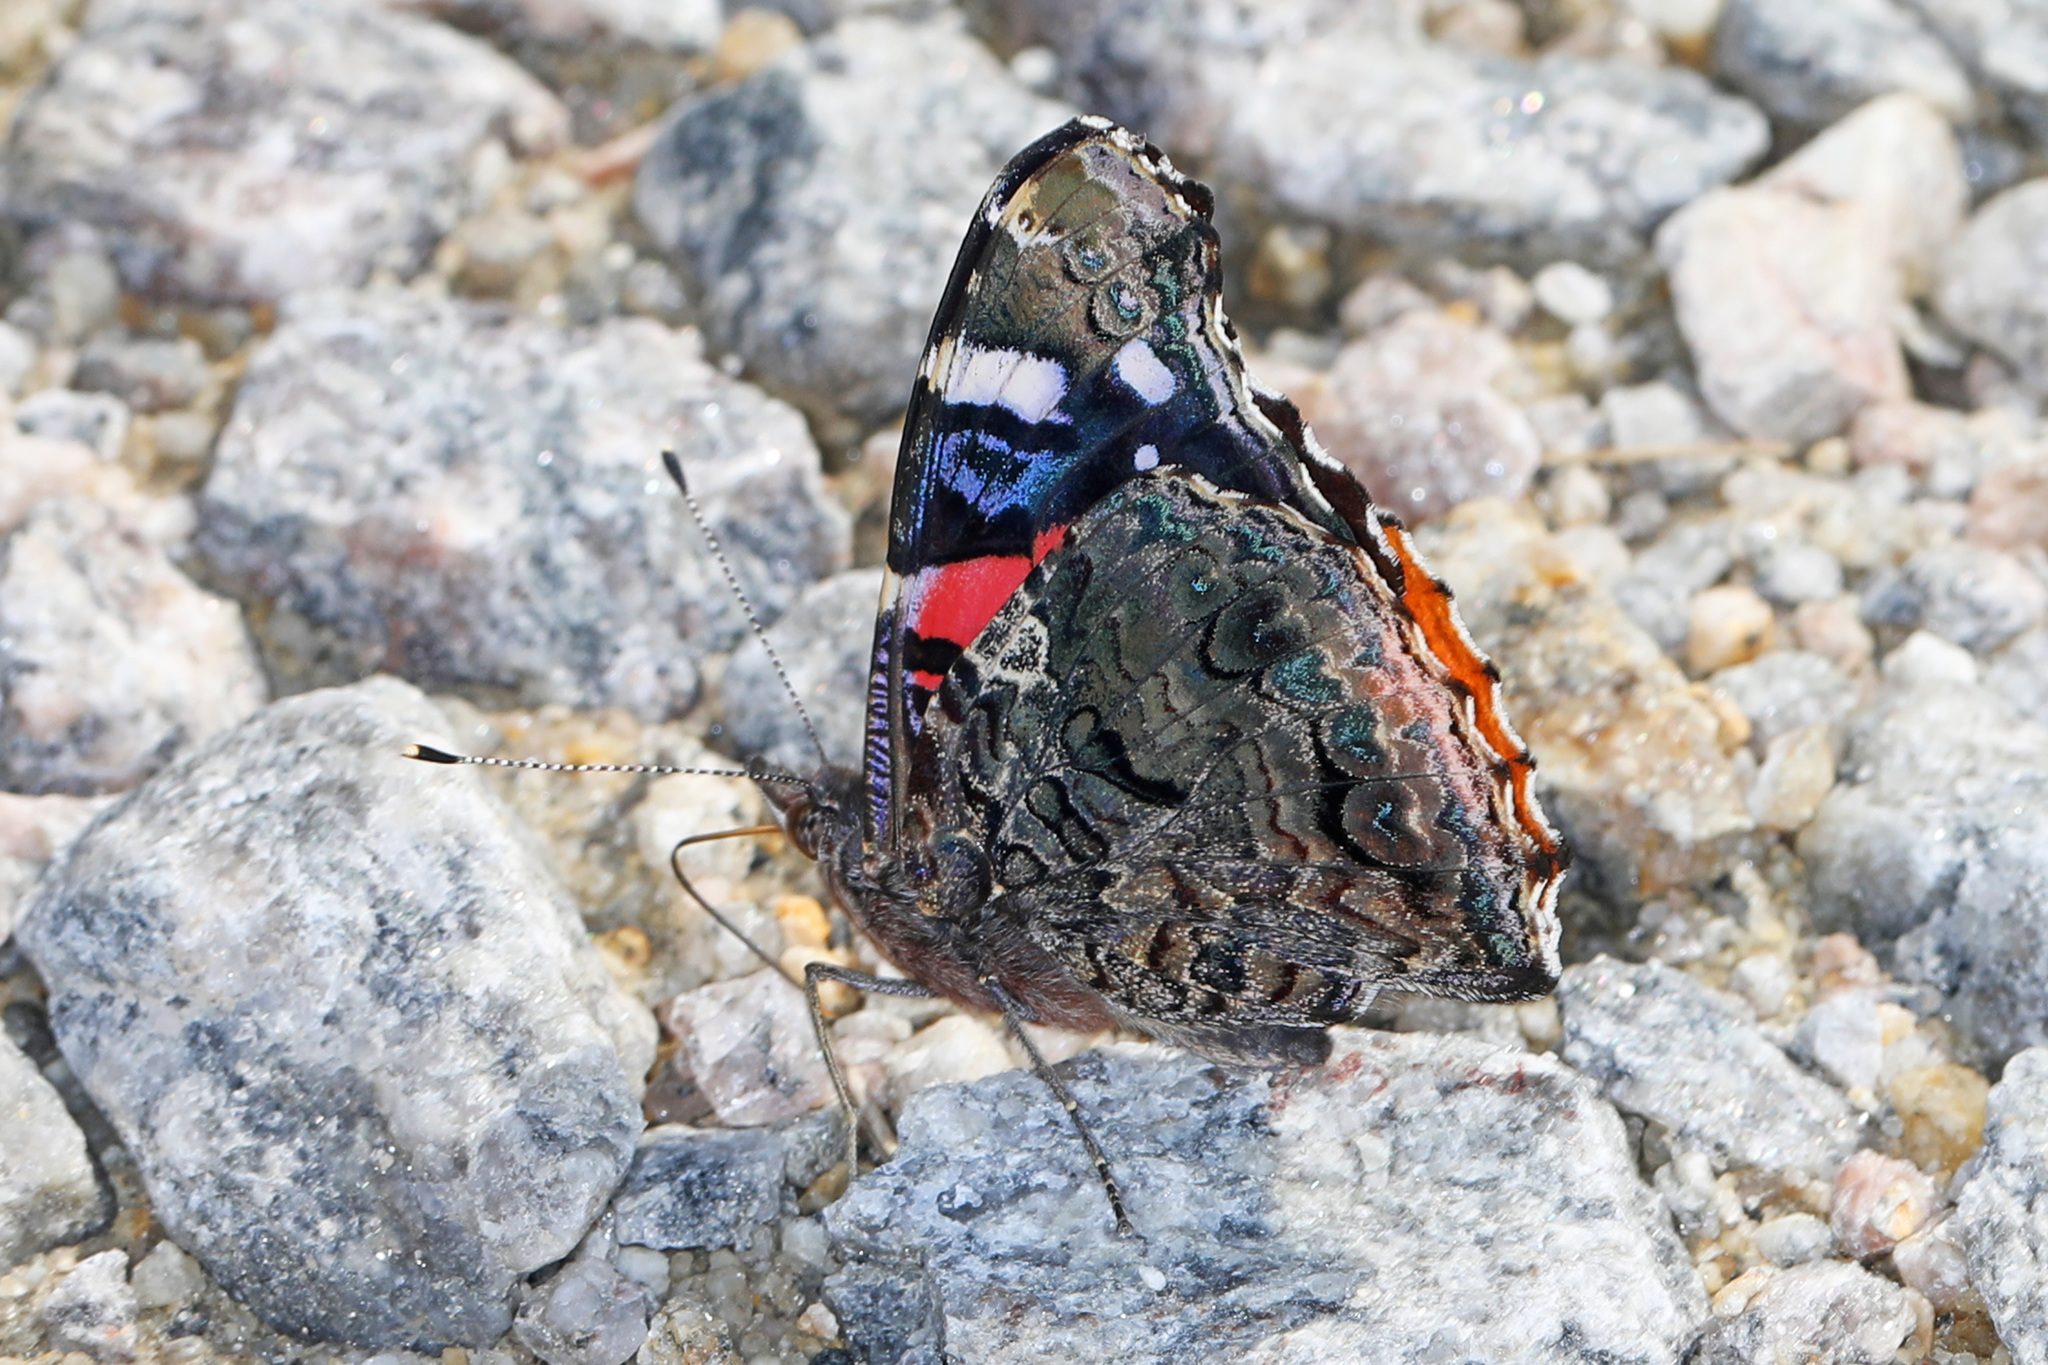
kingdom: Animalia
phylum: Arthropoda
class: Insecta
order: Lepidoptera
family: Nymphalidae
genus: Vanessa
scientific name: Vanessa atalanta
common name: Red admiral
